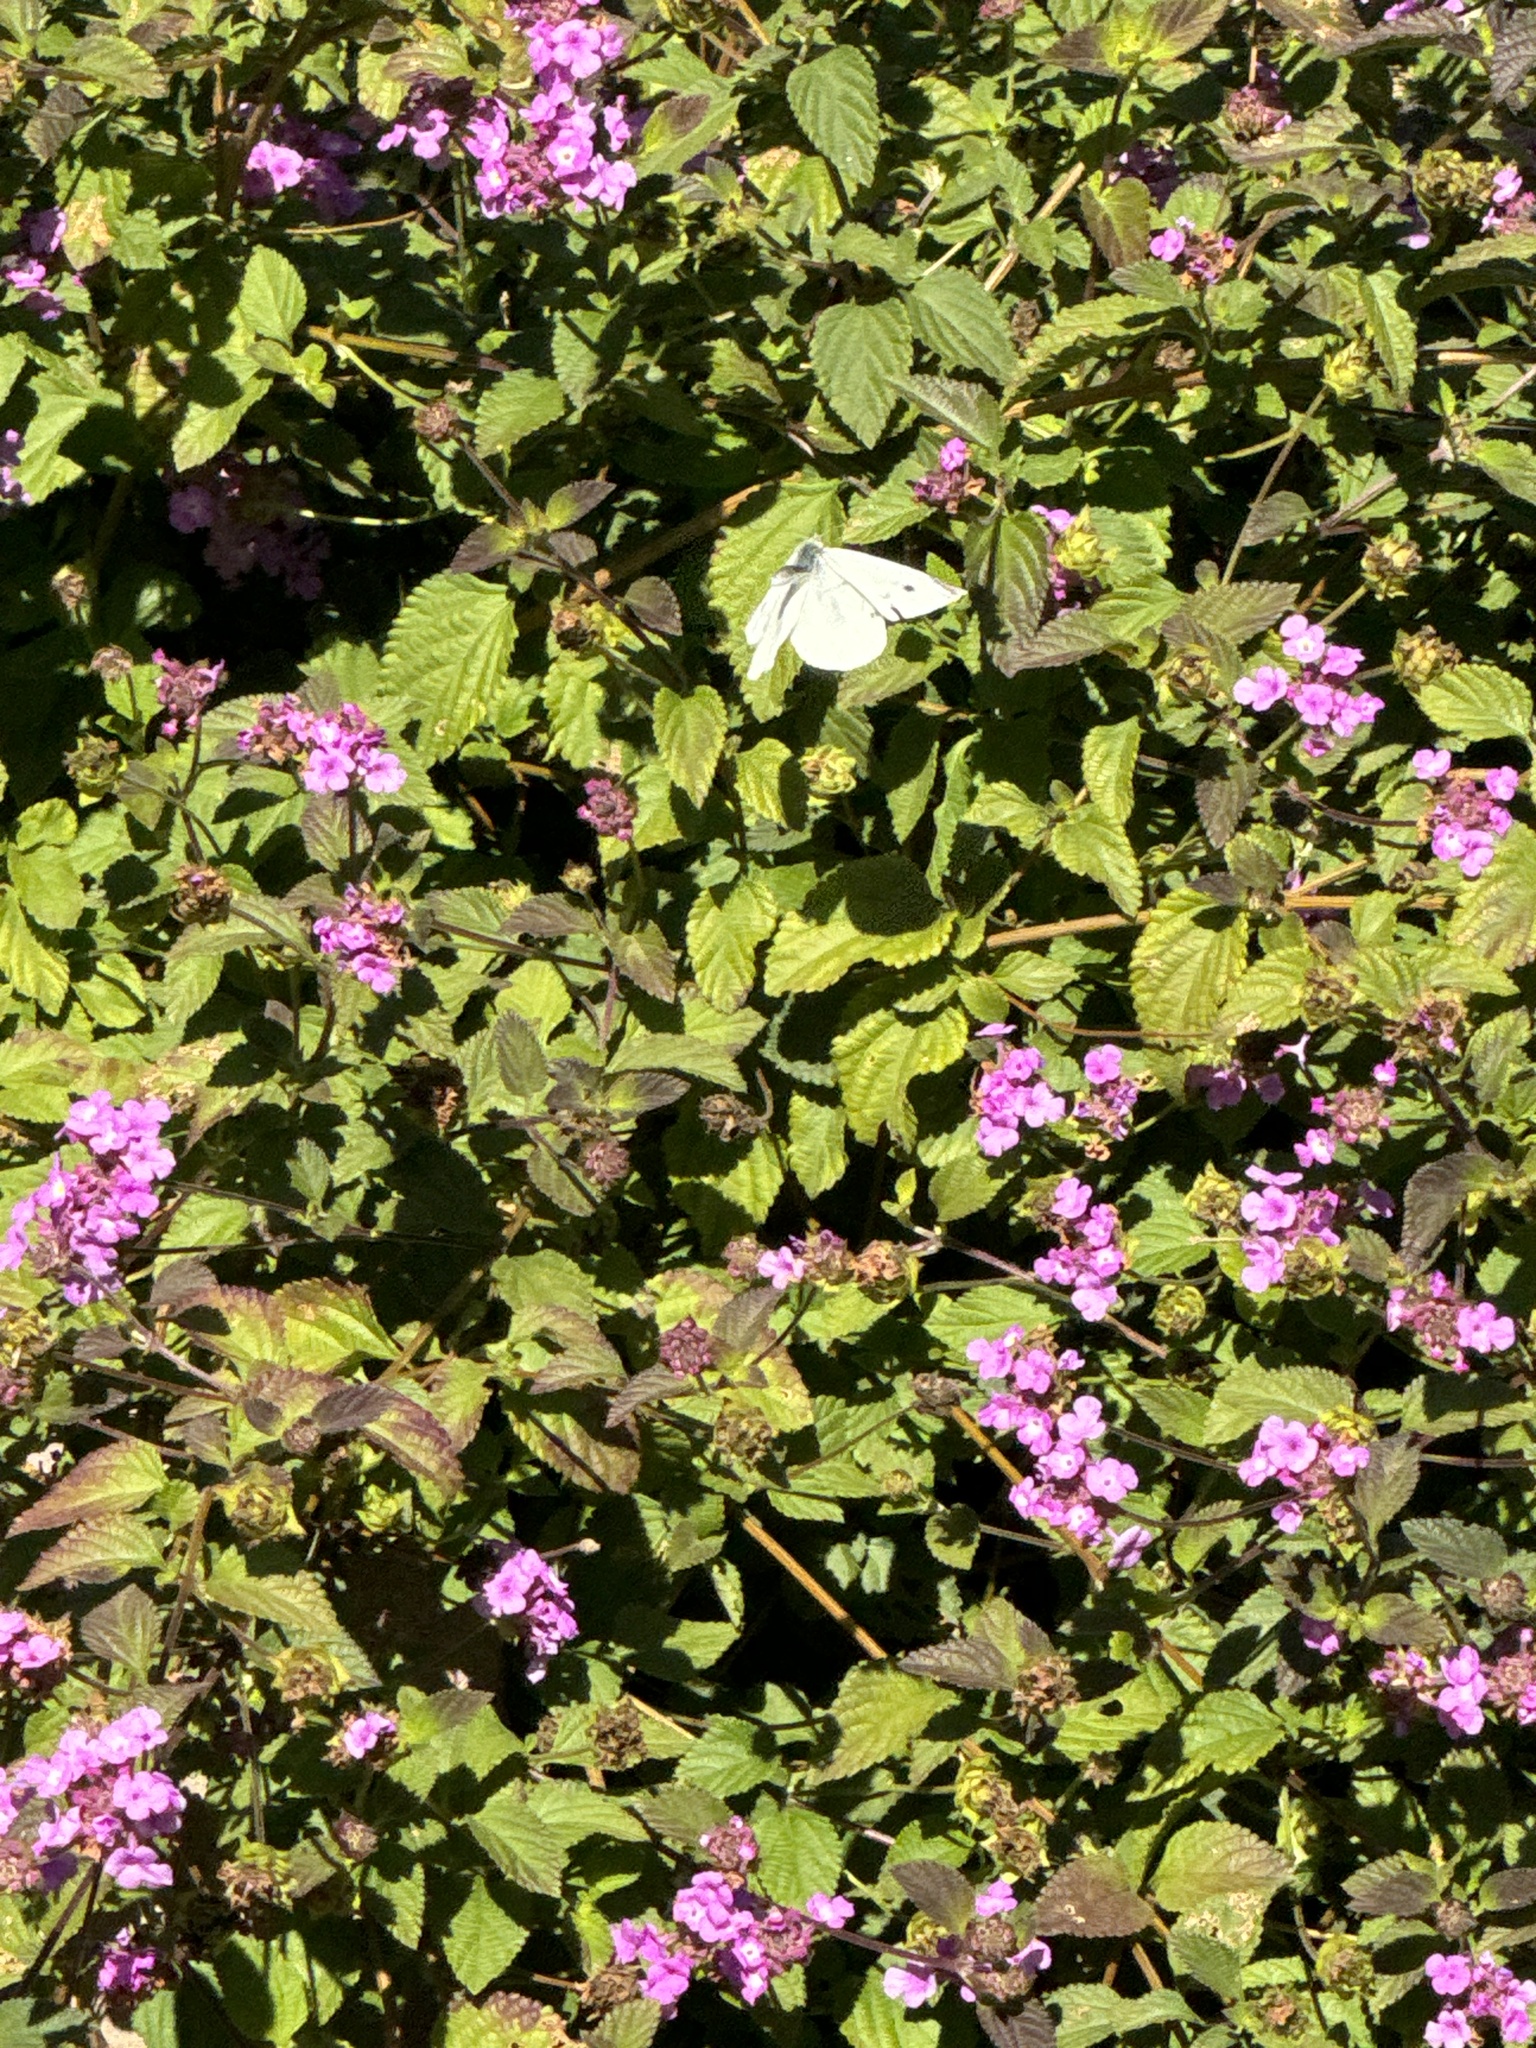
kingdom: Animalia
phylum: Arthropoda
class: Insecta
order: Lepidoptera
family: Pieridae
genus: Pieris
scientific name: Pieris rapae
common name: Small white
